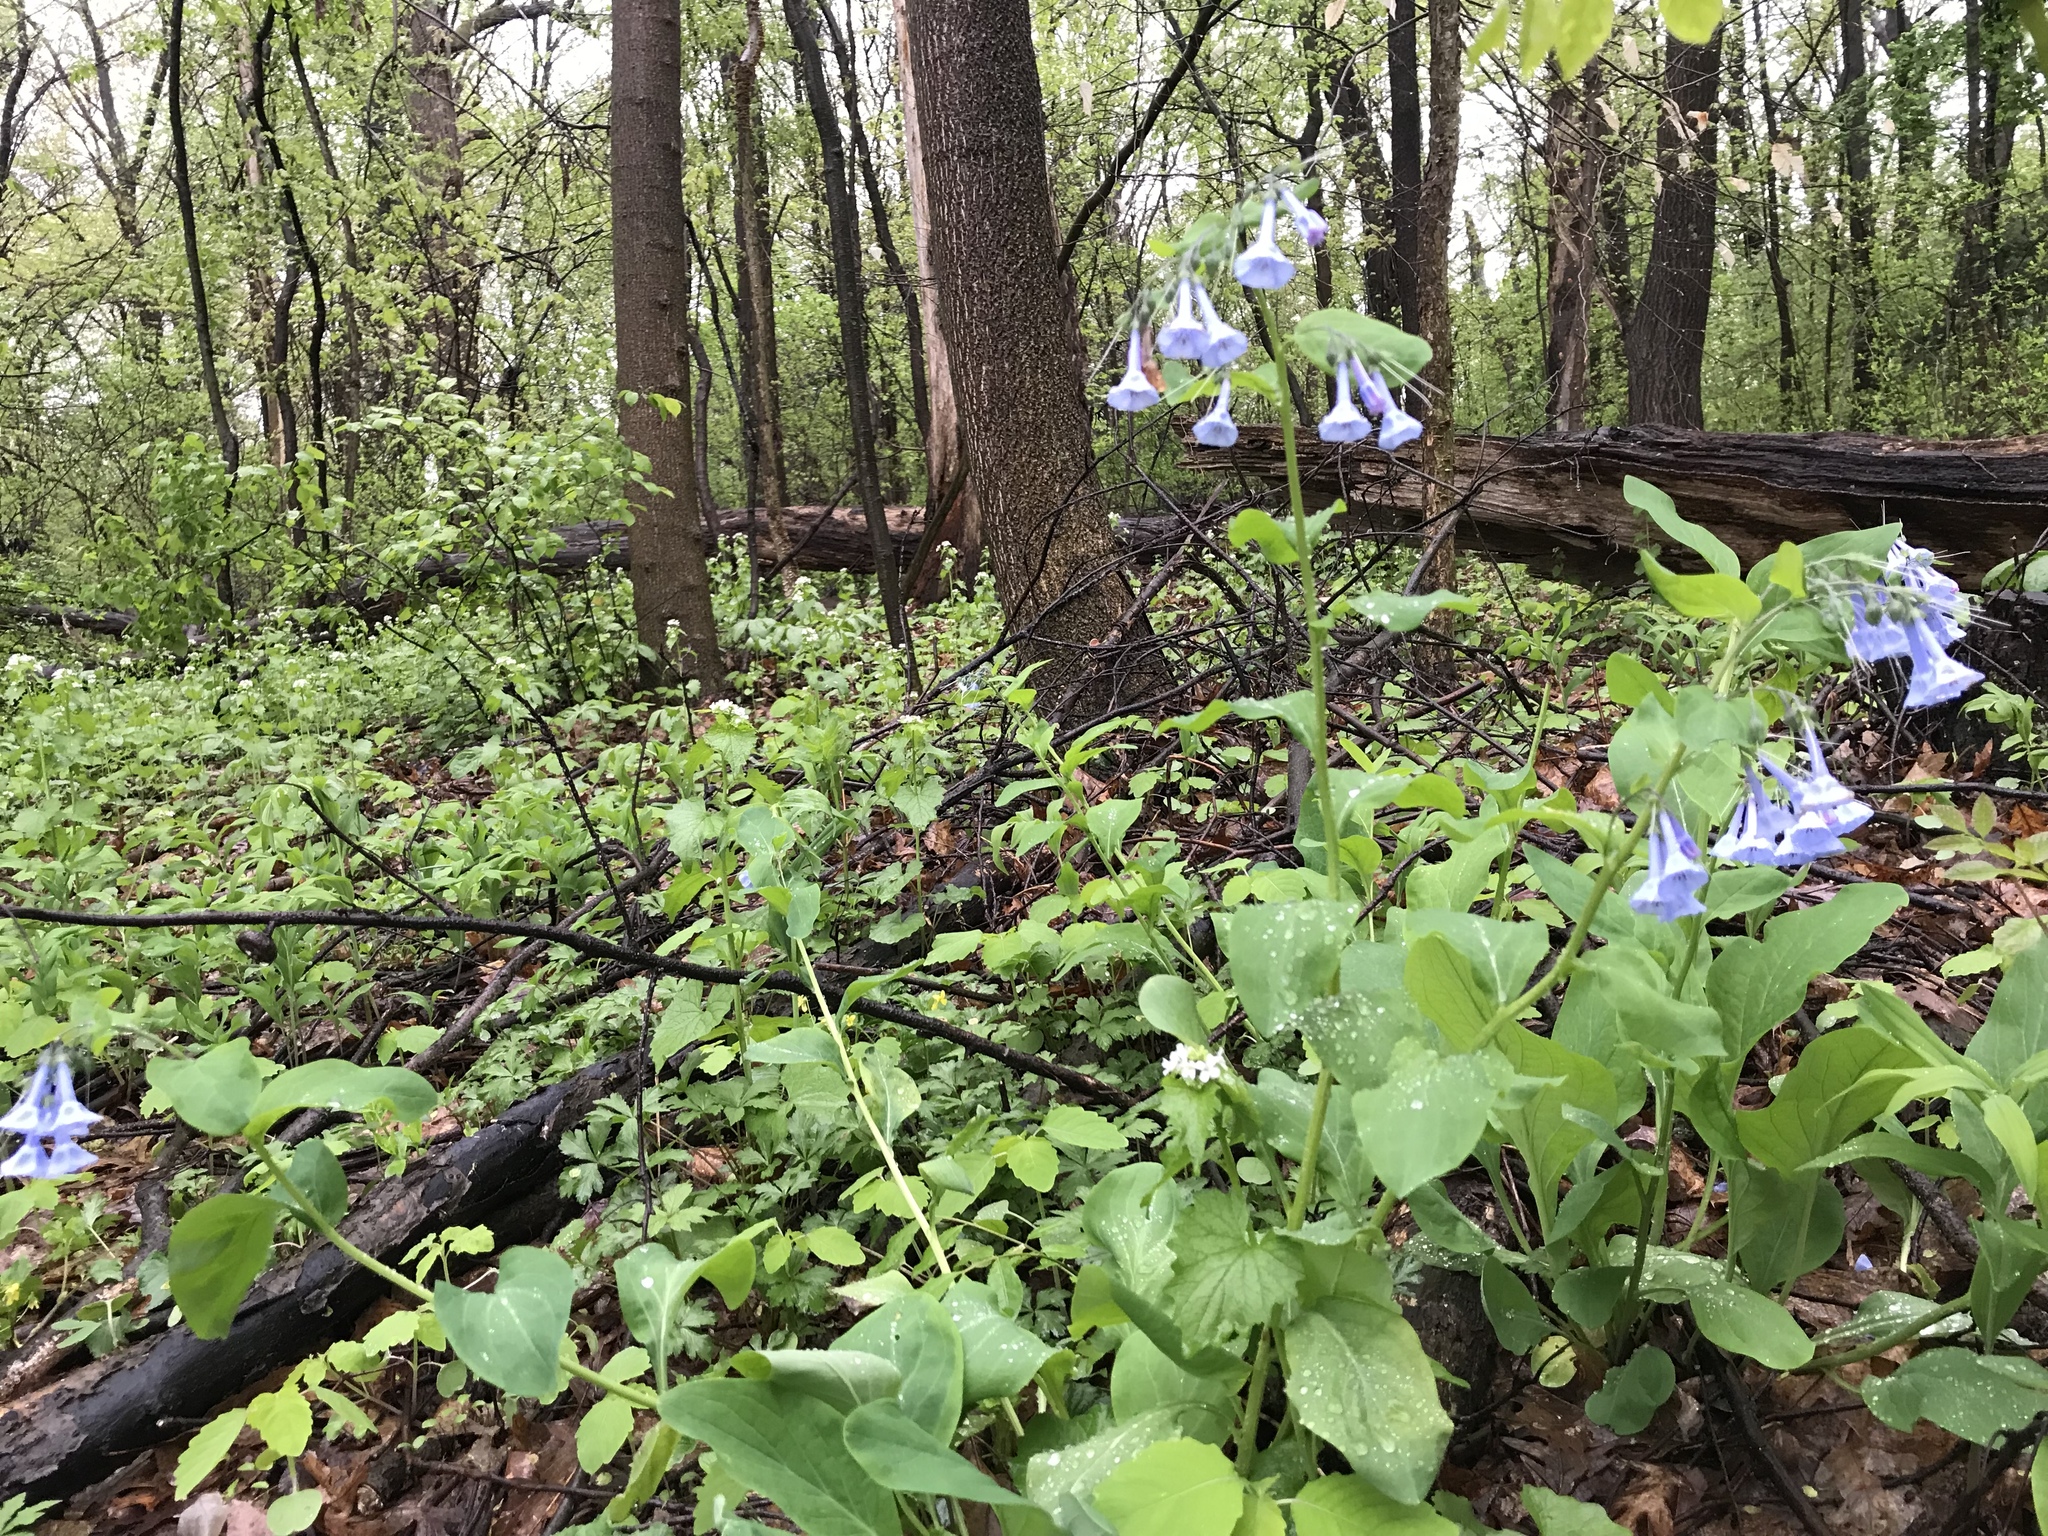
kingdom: Plantae
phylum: Tracheophyta
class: Magnoliopsida
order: Boraginales
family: Boraginaceae
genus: Mertensia
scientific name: Mertensia virginica
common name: Virginia bluebells
